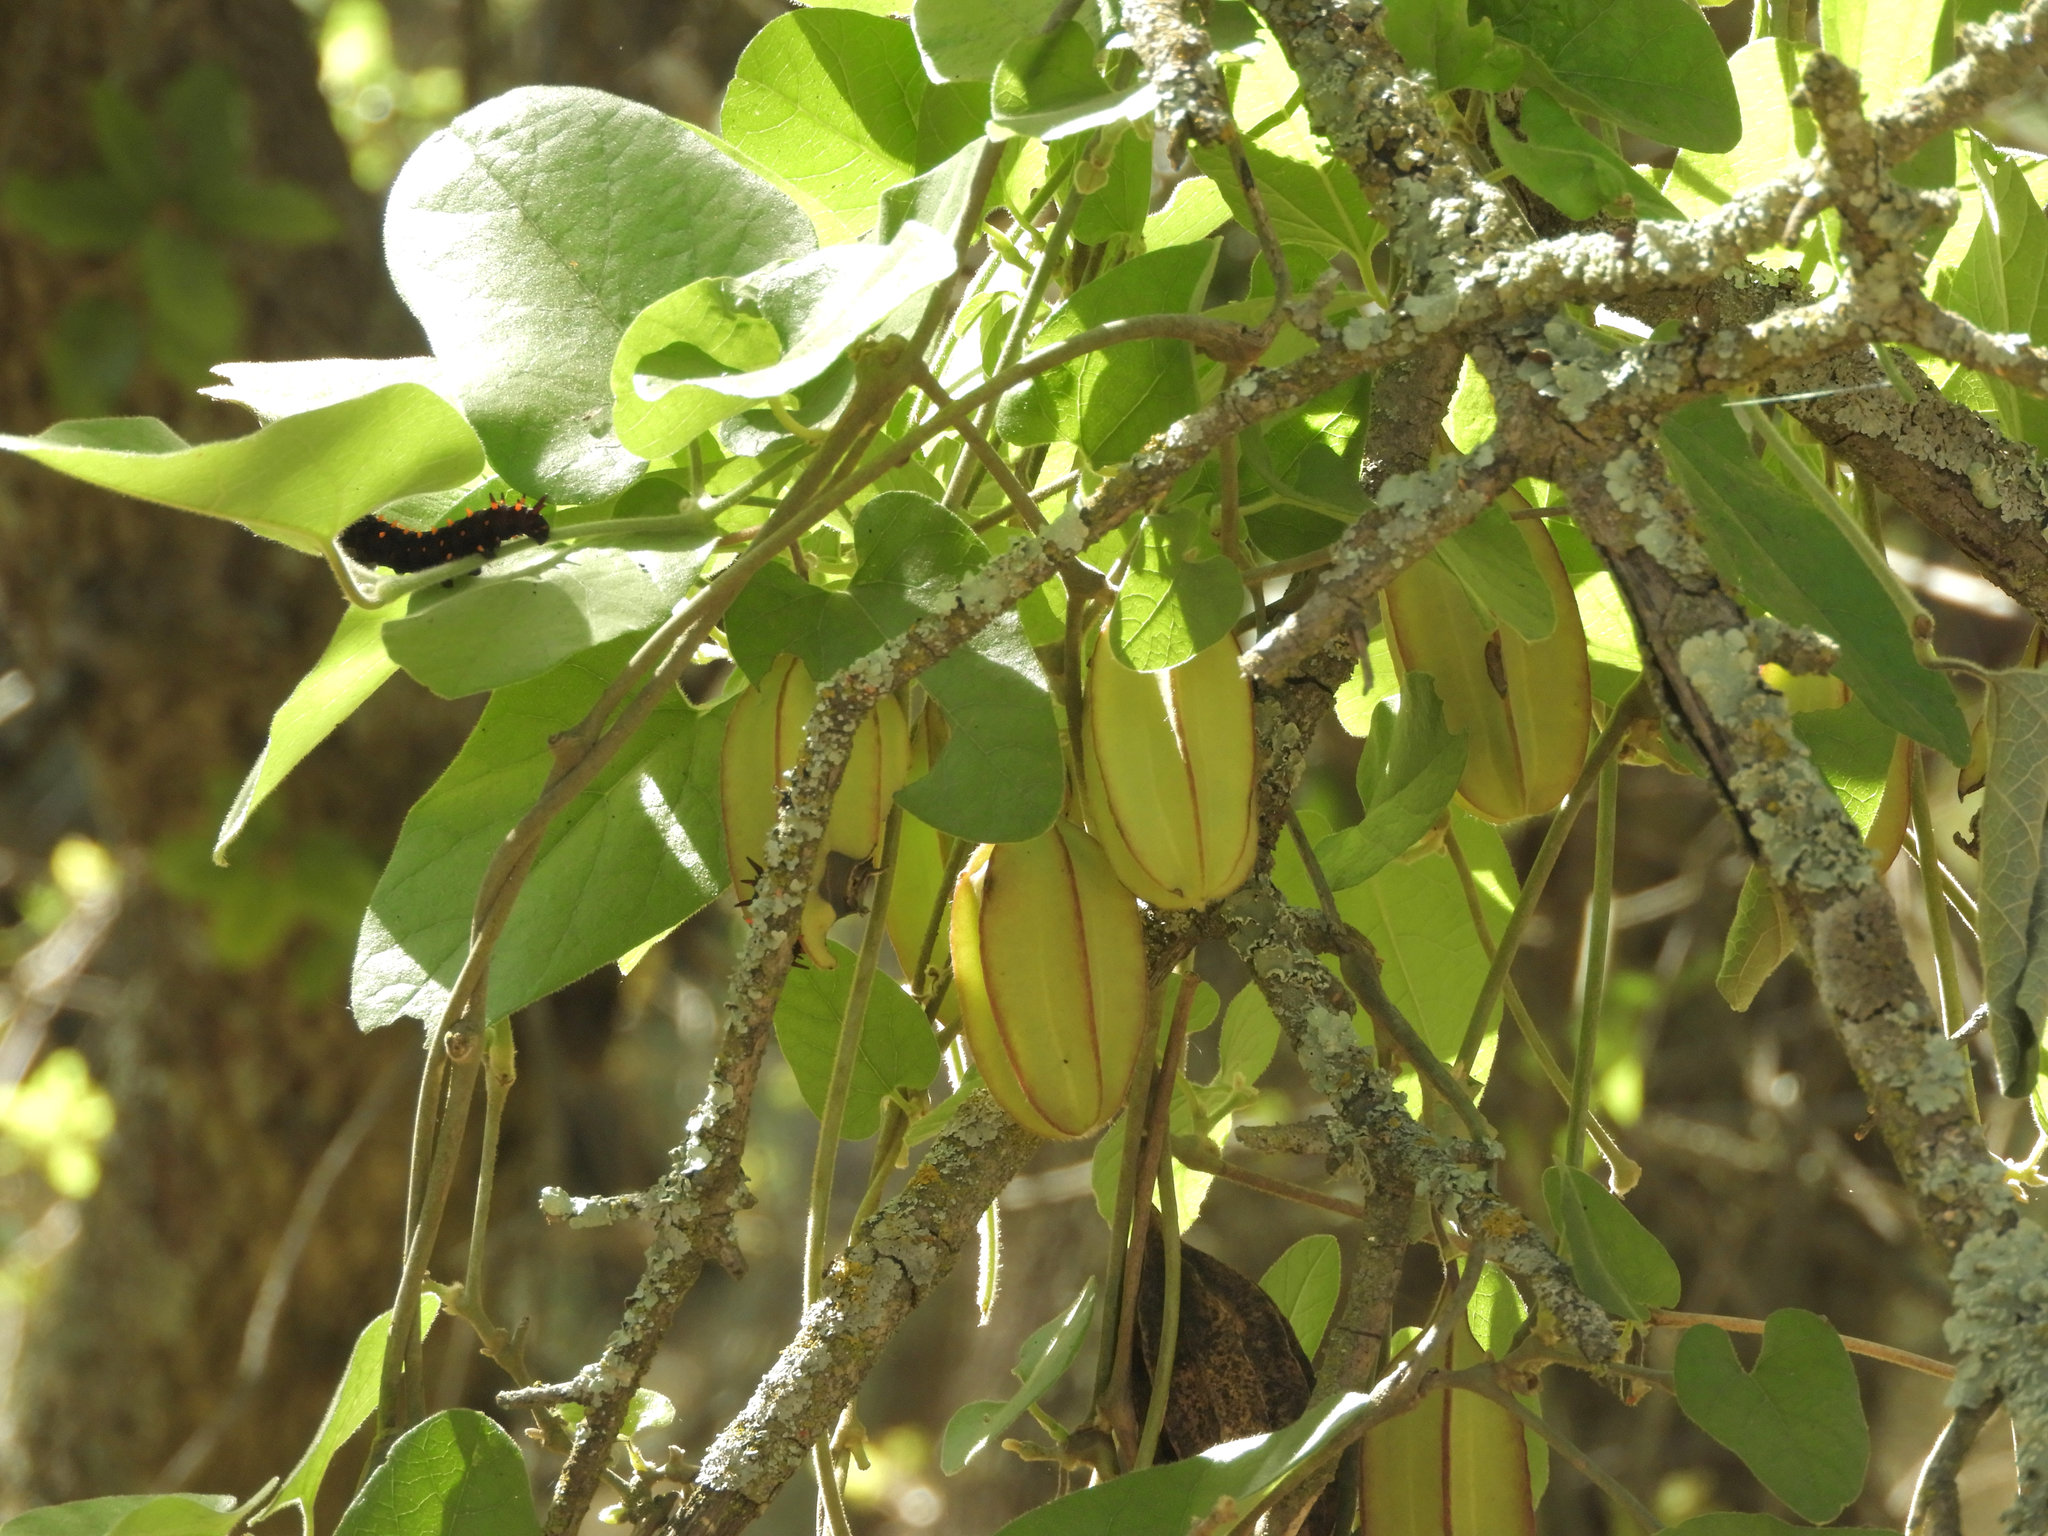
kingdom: Plantae
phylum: Tracheophyta
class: Magnoliopsida
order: Piperales
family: Aristolochiaceae
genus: Isotrema
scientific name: Isotrema californicum
